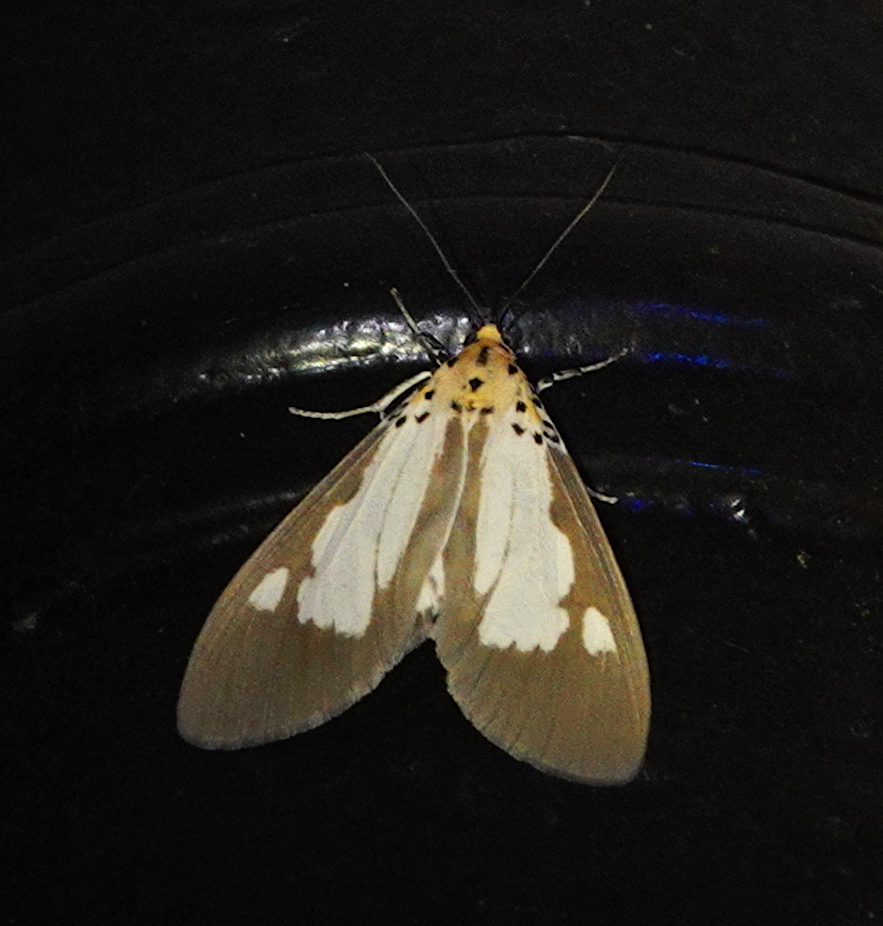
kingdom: Animalia
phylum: Arthropoda
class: Insecta
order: Lepidoptera
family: Erebidae
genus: Asota
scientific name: Asota plana
